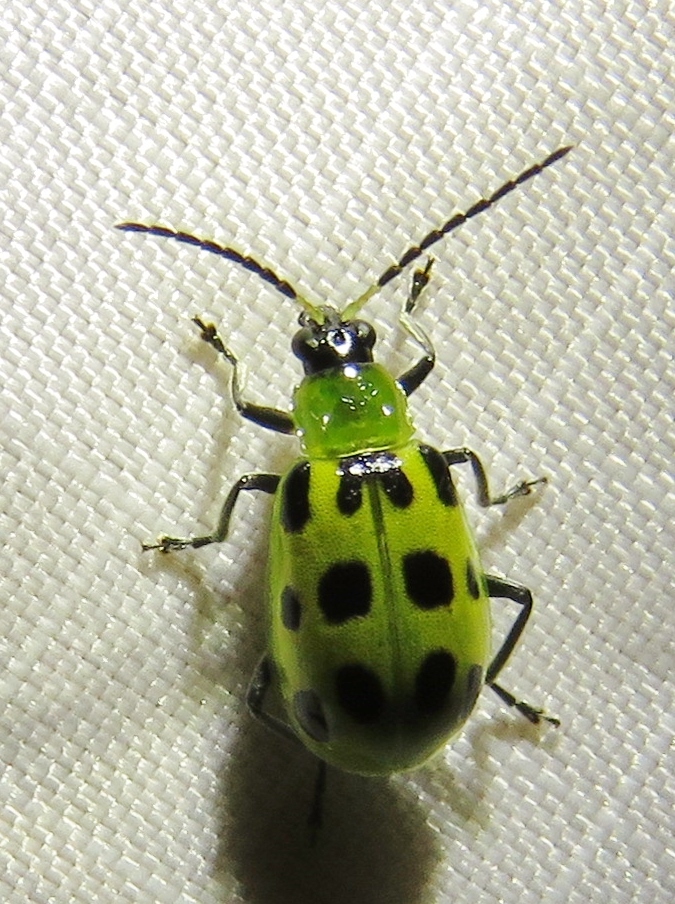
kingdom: Animalia
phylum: Arthropoda
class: Insecta
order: Coleoptera
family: Chrysomelidae
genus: Diabrotica
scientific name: Diabrotica undecimpunctata
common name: Spotted cucumber beetle
